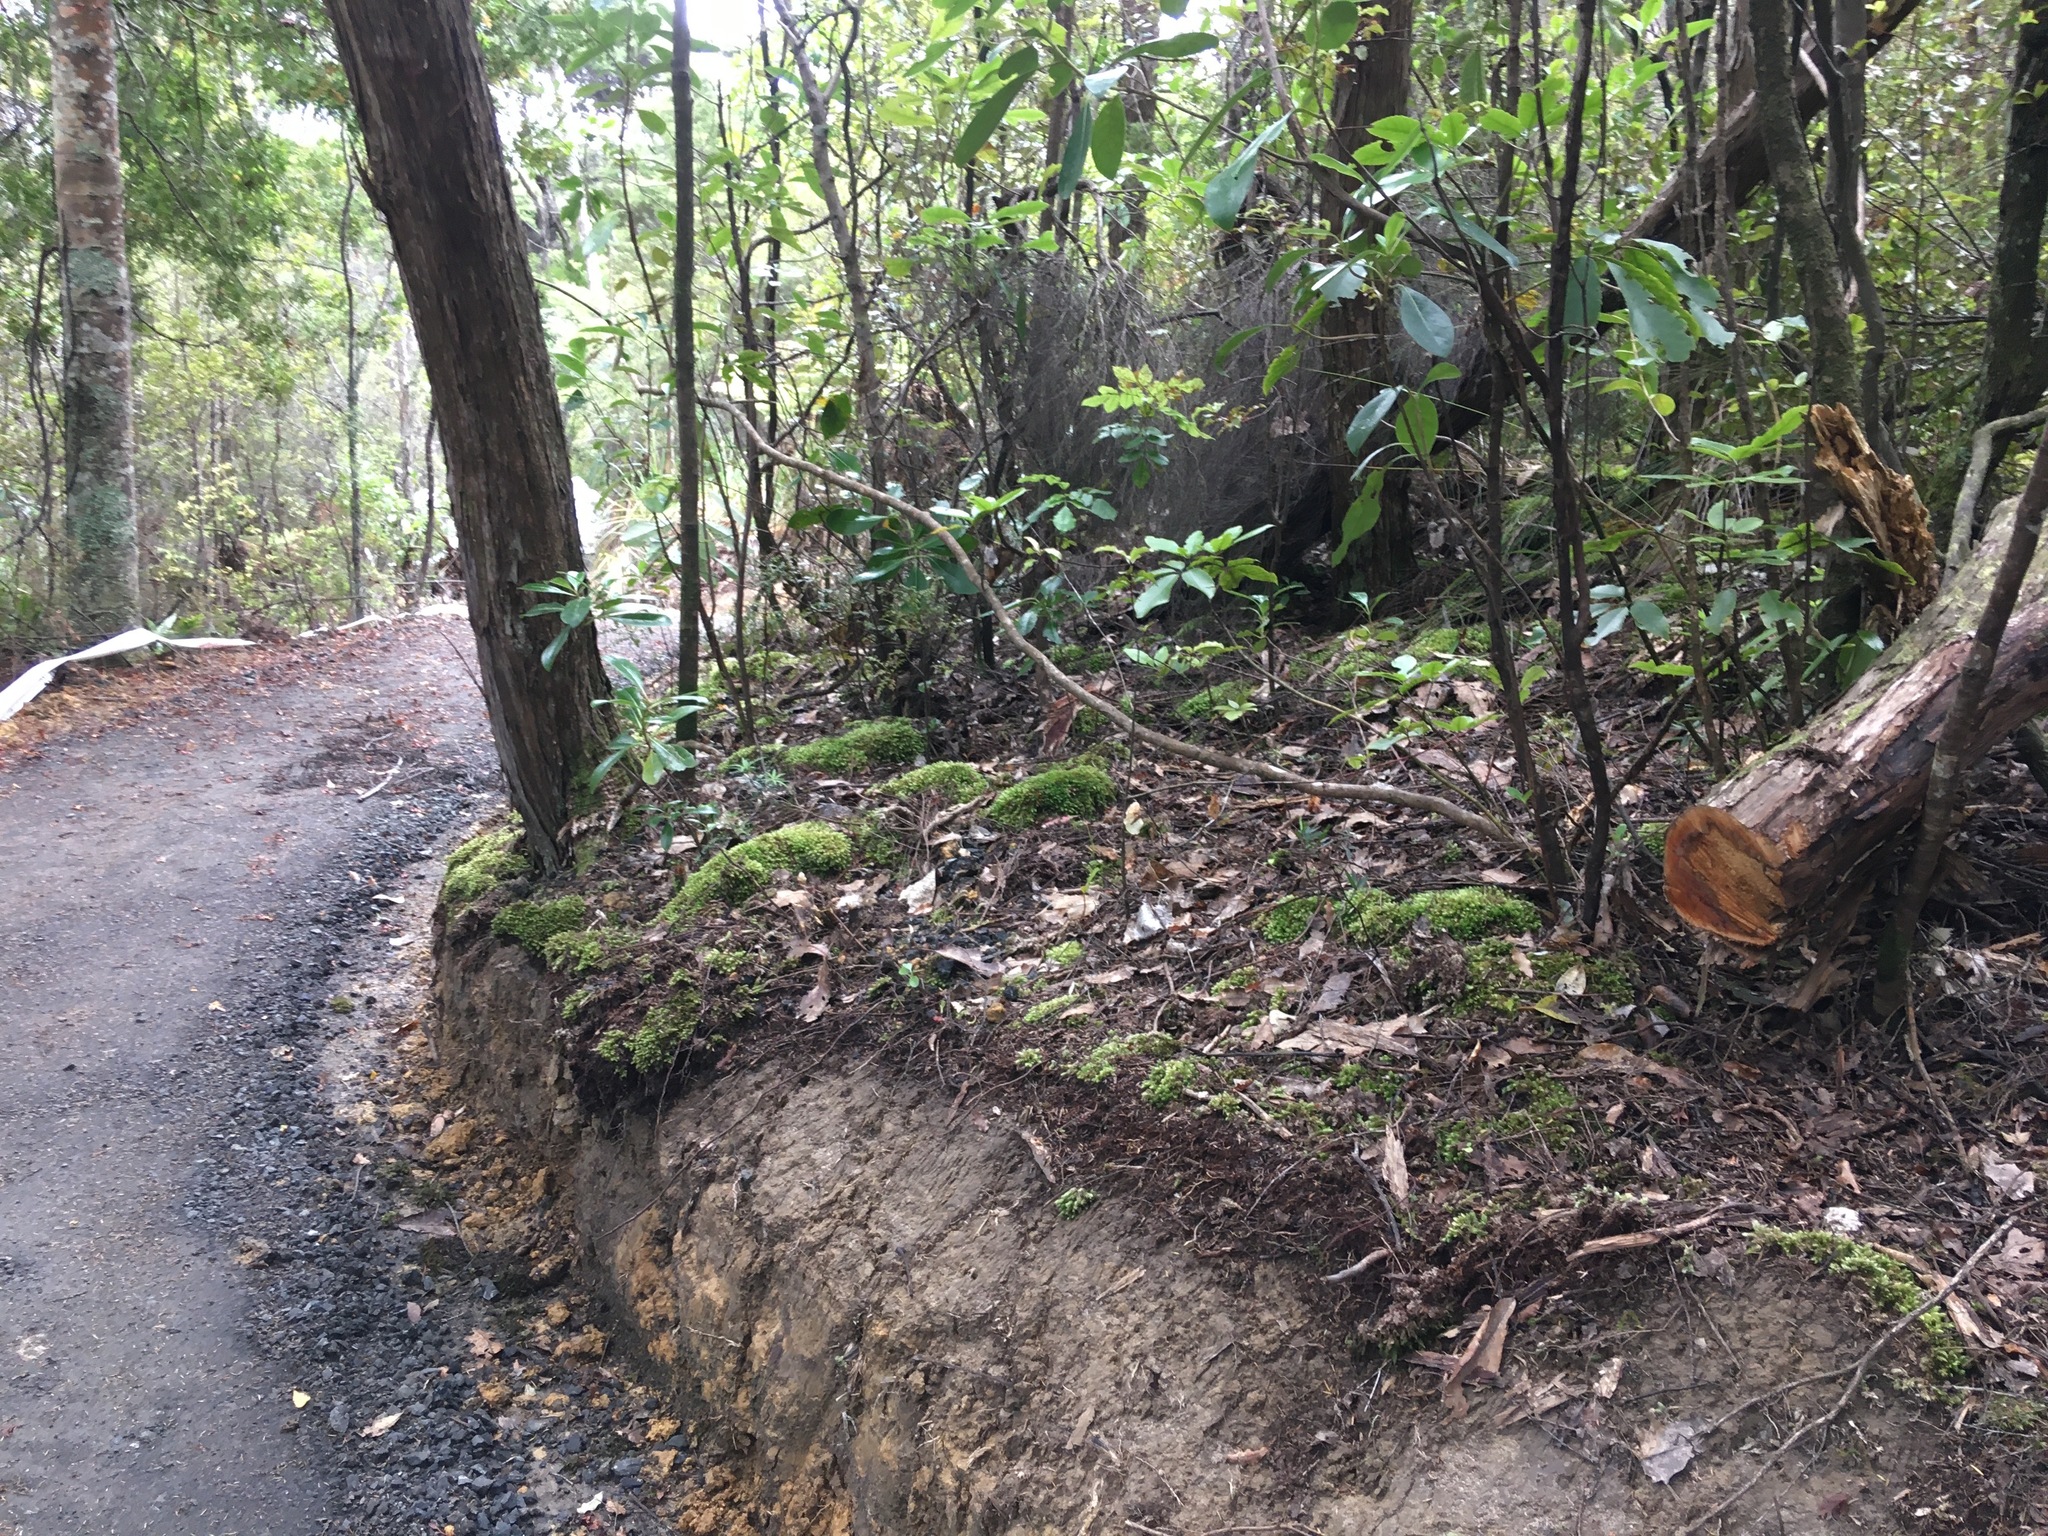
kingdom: Plantae
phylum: Tracheophyta
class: Pinopsida
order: Pinales
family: Phyllocladaceae
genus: Phyllocladus
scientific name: Phyllocladus trichomanoides
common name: Celery pine
